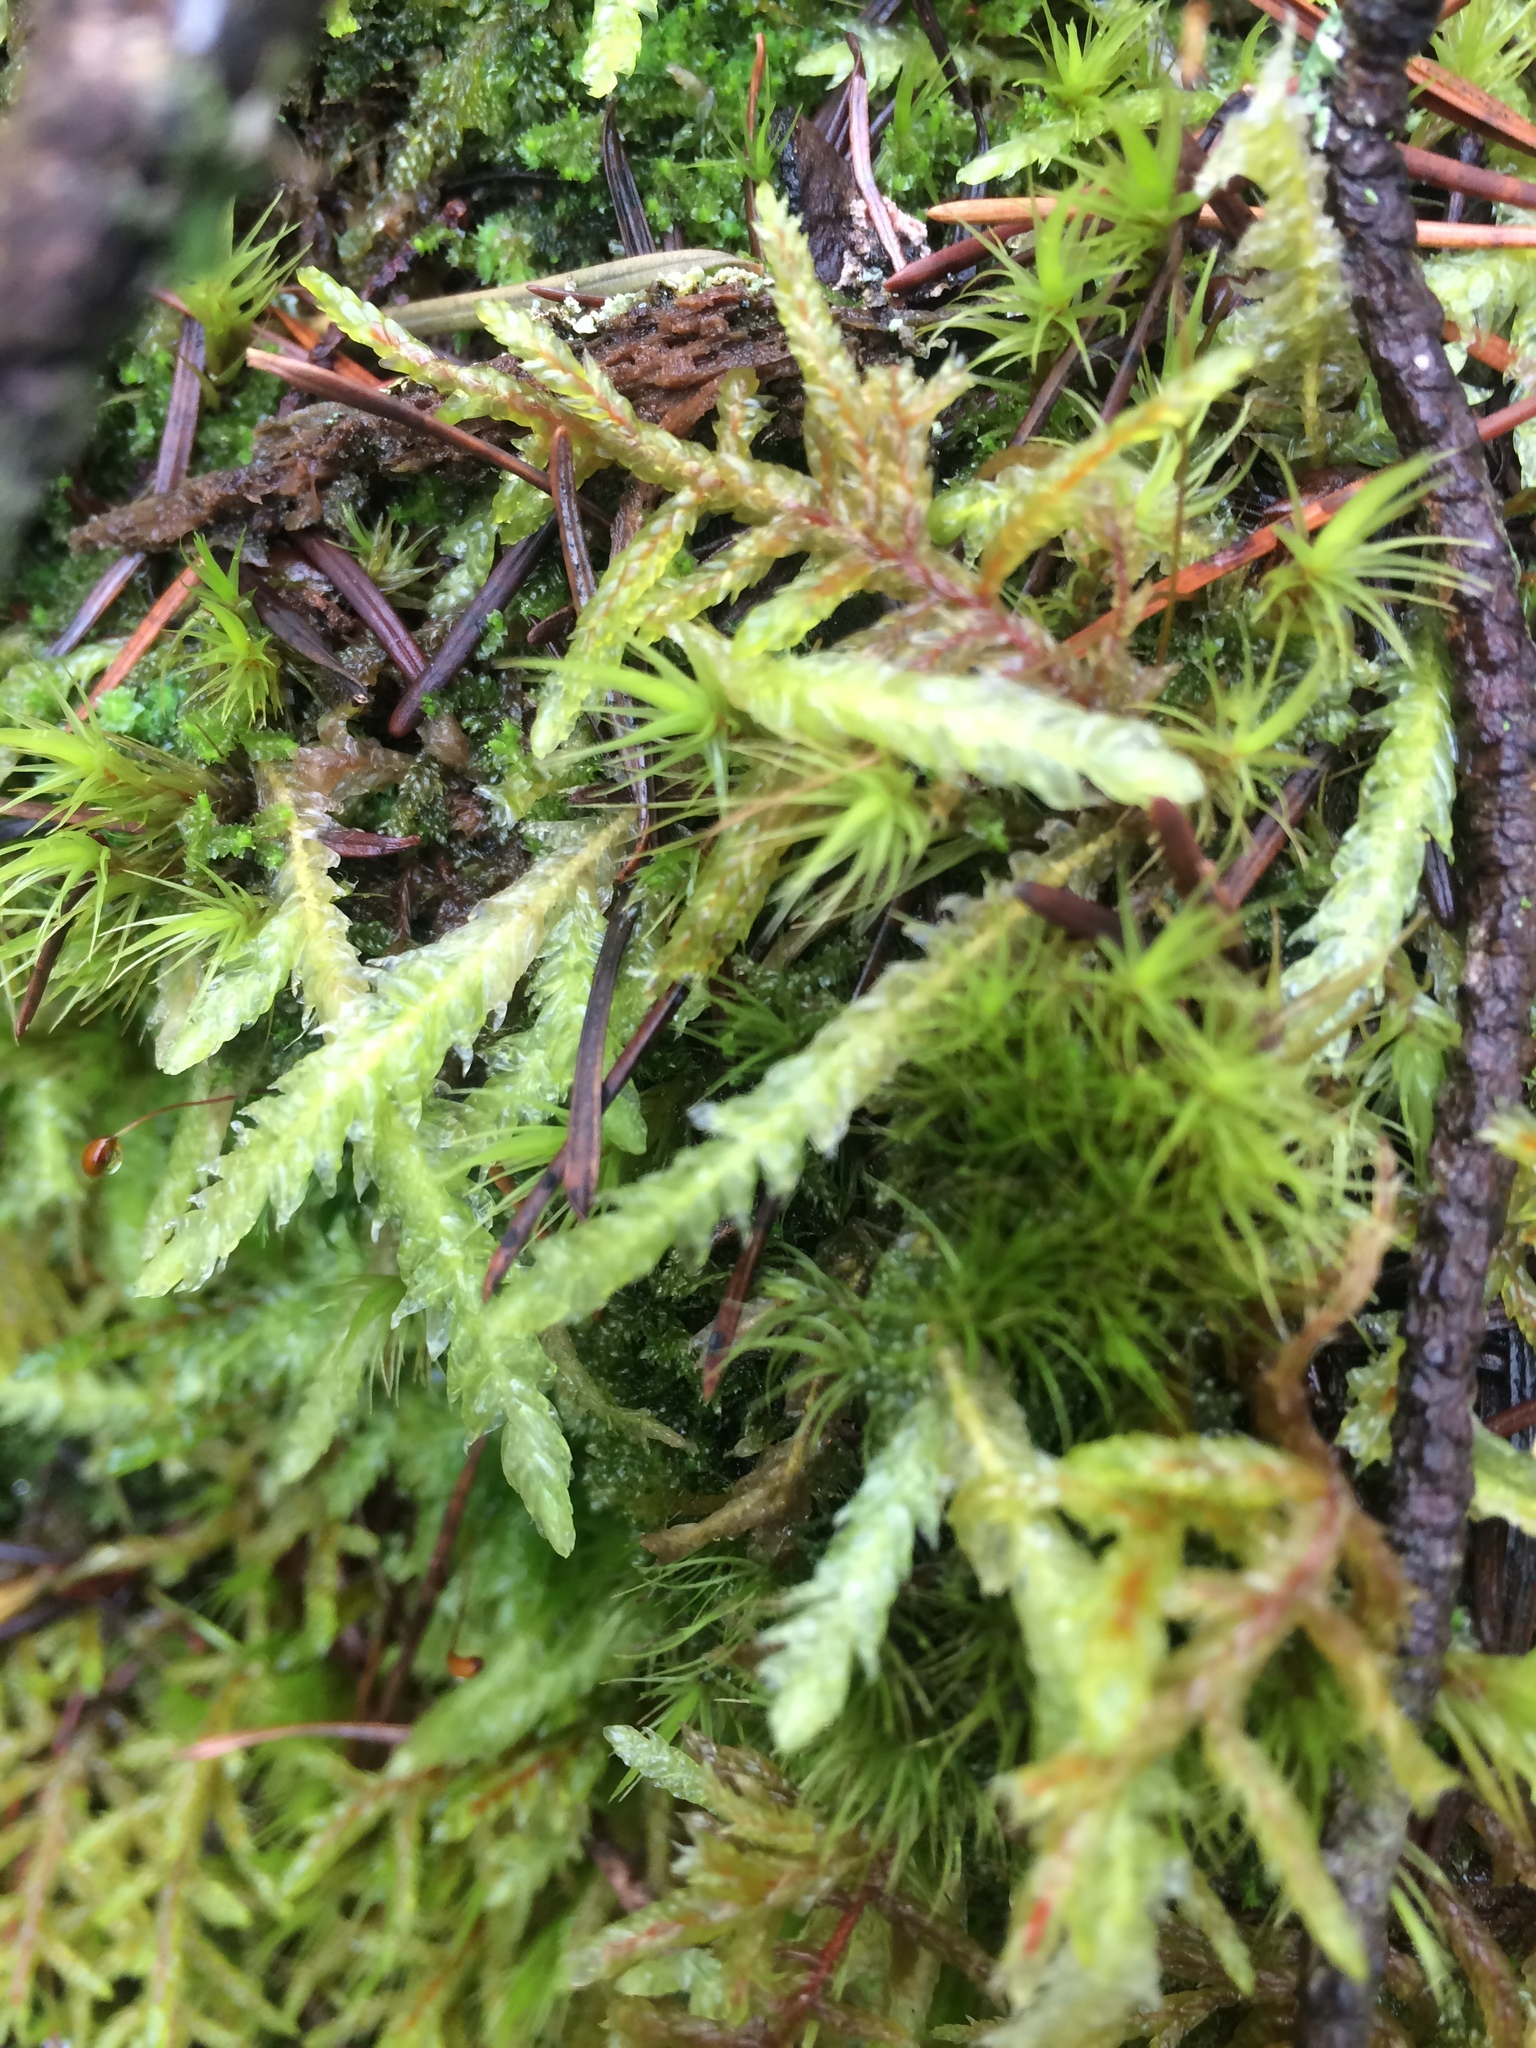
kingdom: Plantae
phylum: Bryophyta
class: Bryopsida
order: Hypnales
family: Plagiotheciaceae
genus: Plagiothecium
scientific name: Plagiothecium undulatum
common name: Waved silk-moss
